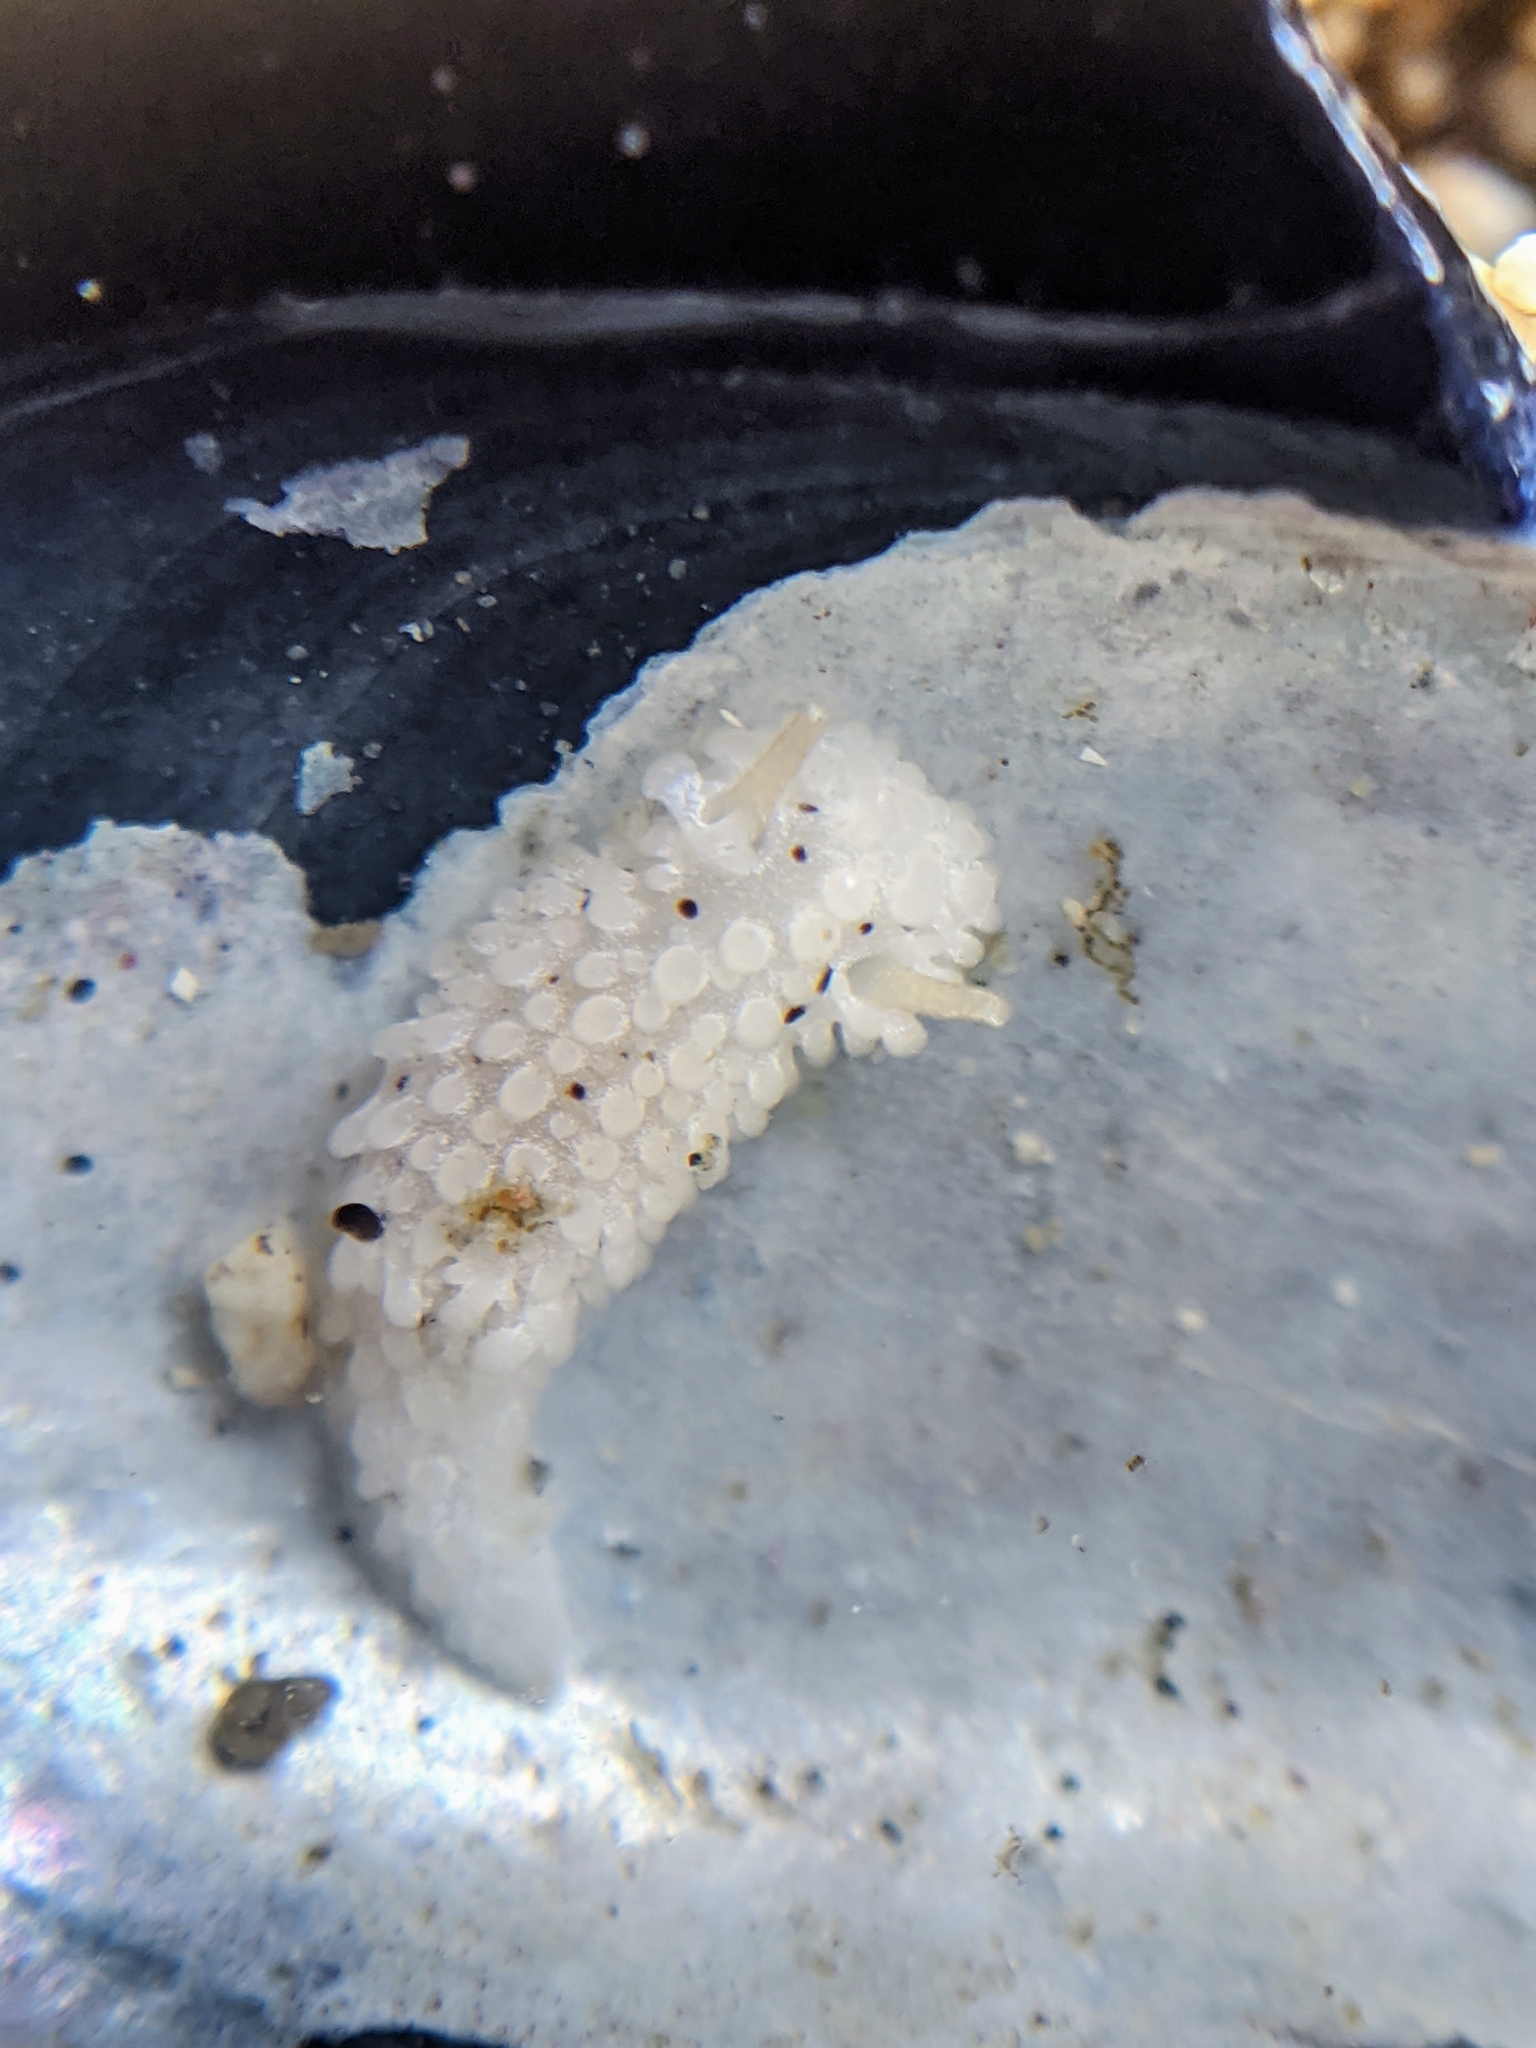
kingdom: Animalia
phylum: Mollusca
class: Gastropoda
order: Nudibranchia
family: Aegiridae
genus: Aegires
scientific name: Aegires albopunctatus
